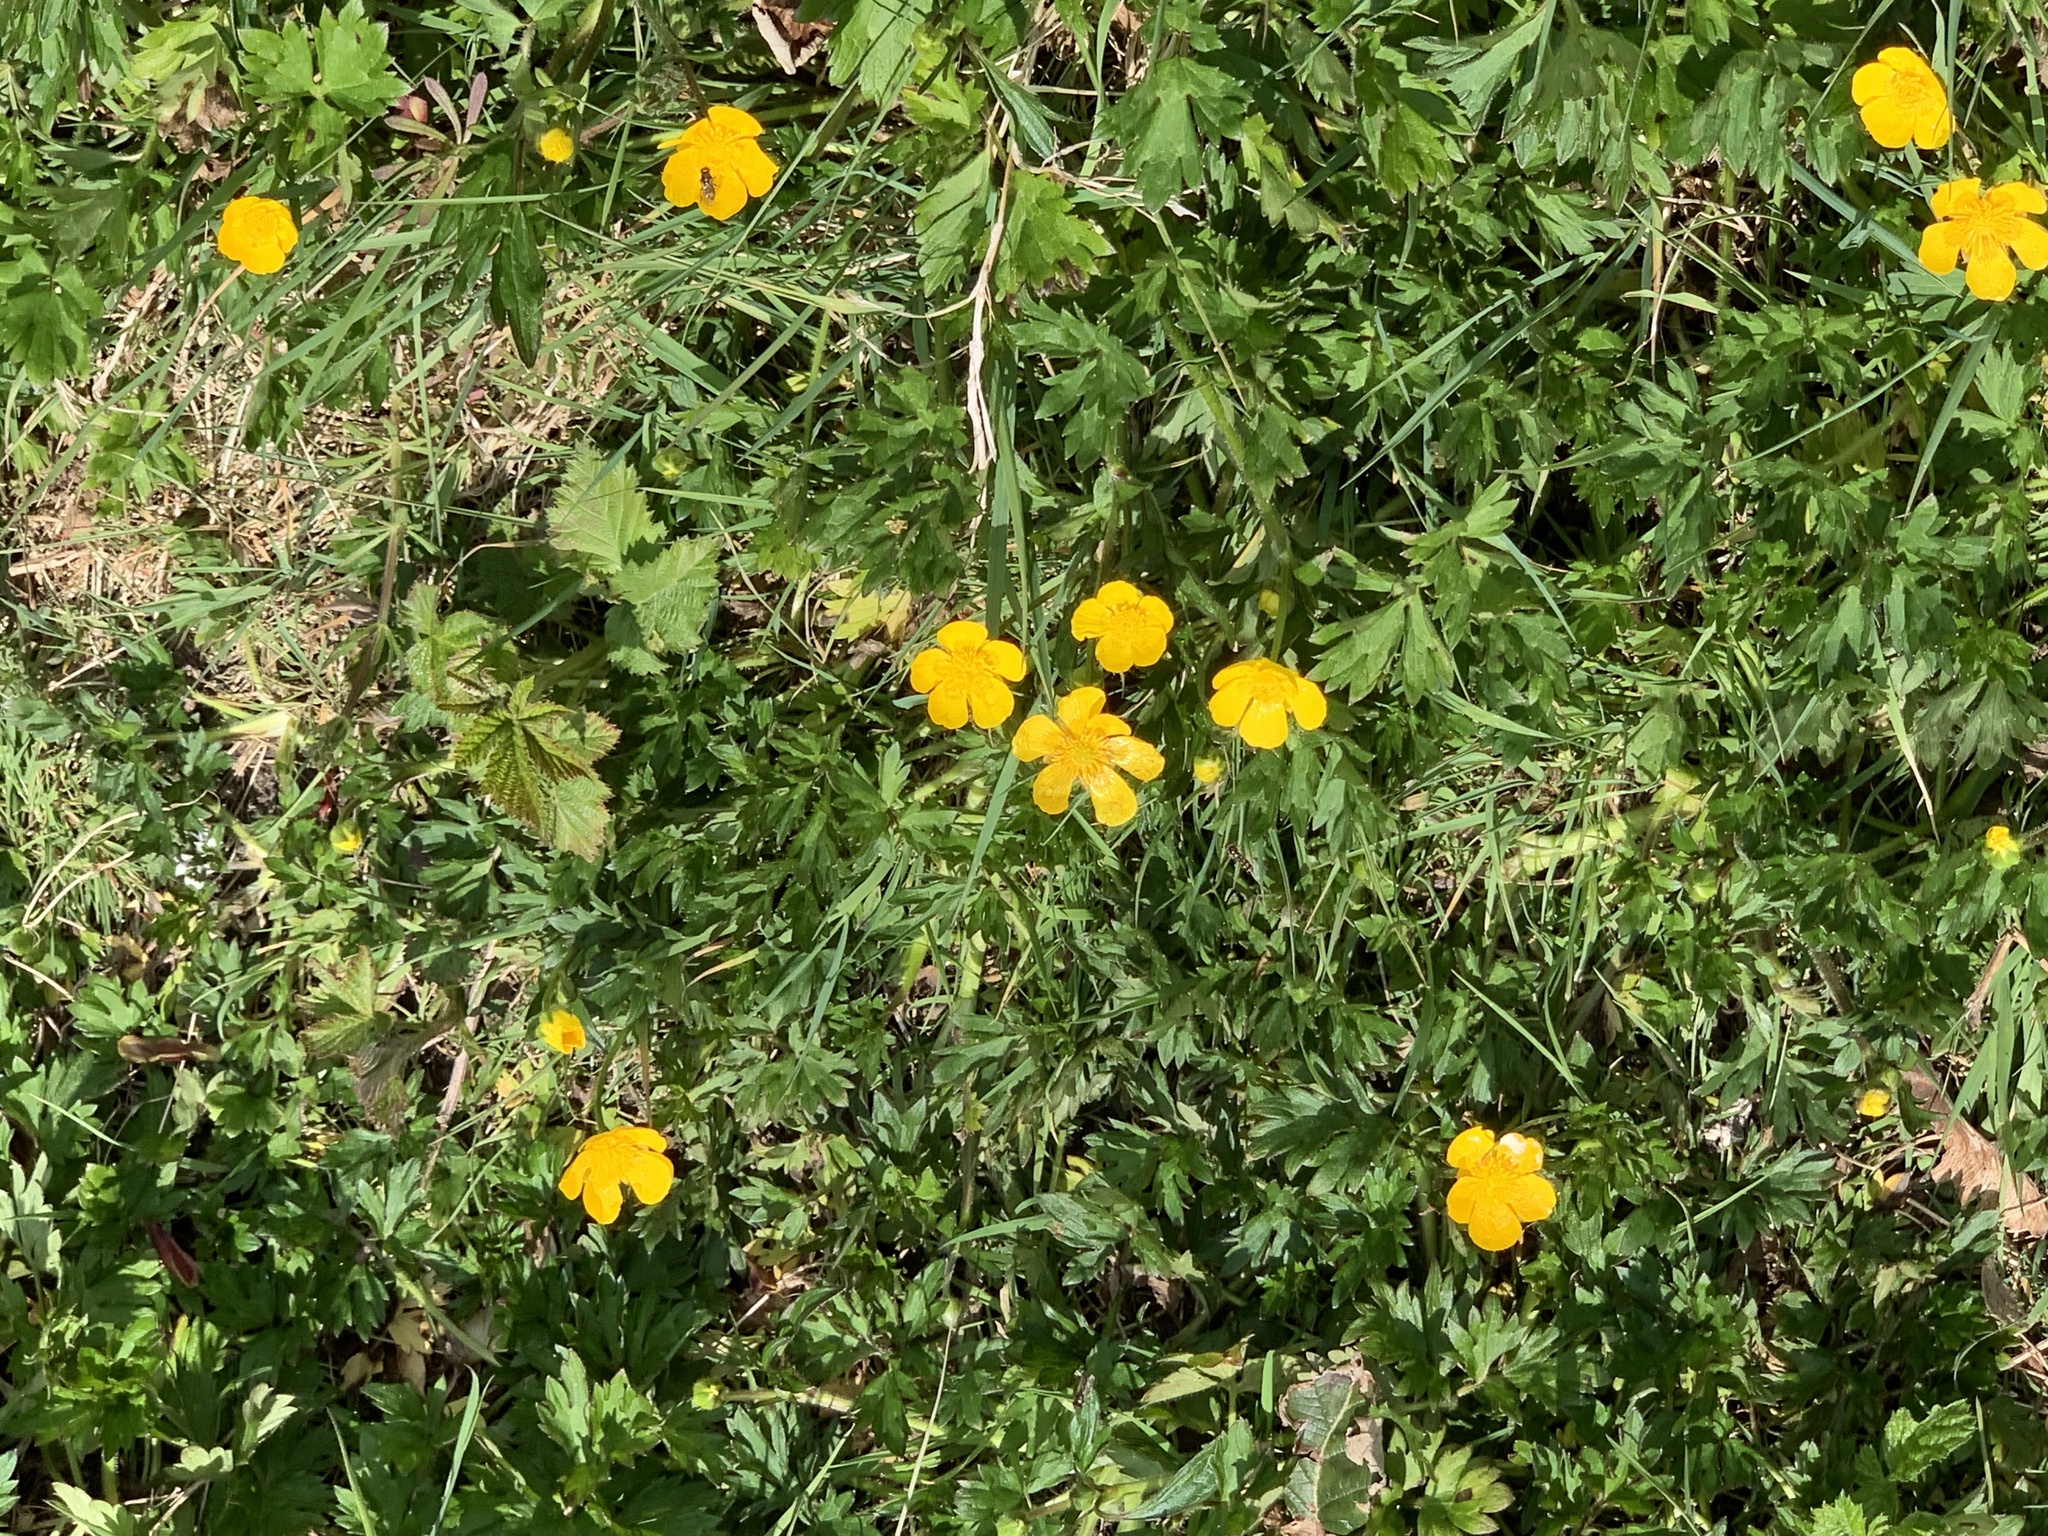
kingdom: Plantae
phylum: Tracheophyta
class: Magnoliopsida
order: Ranunculales
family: Ranunculaceae
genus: Ranunculus
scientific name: Ranunculus repens
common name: Creeping buttercup
